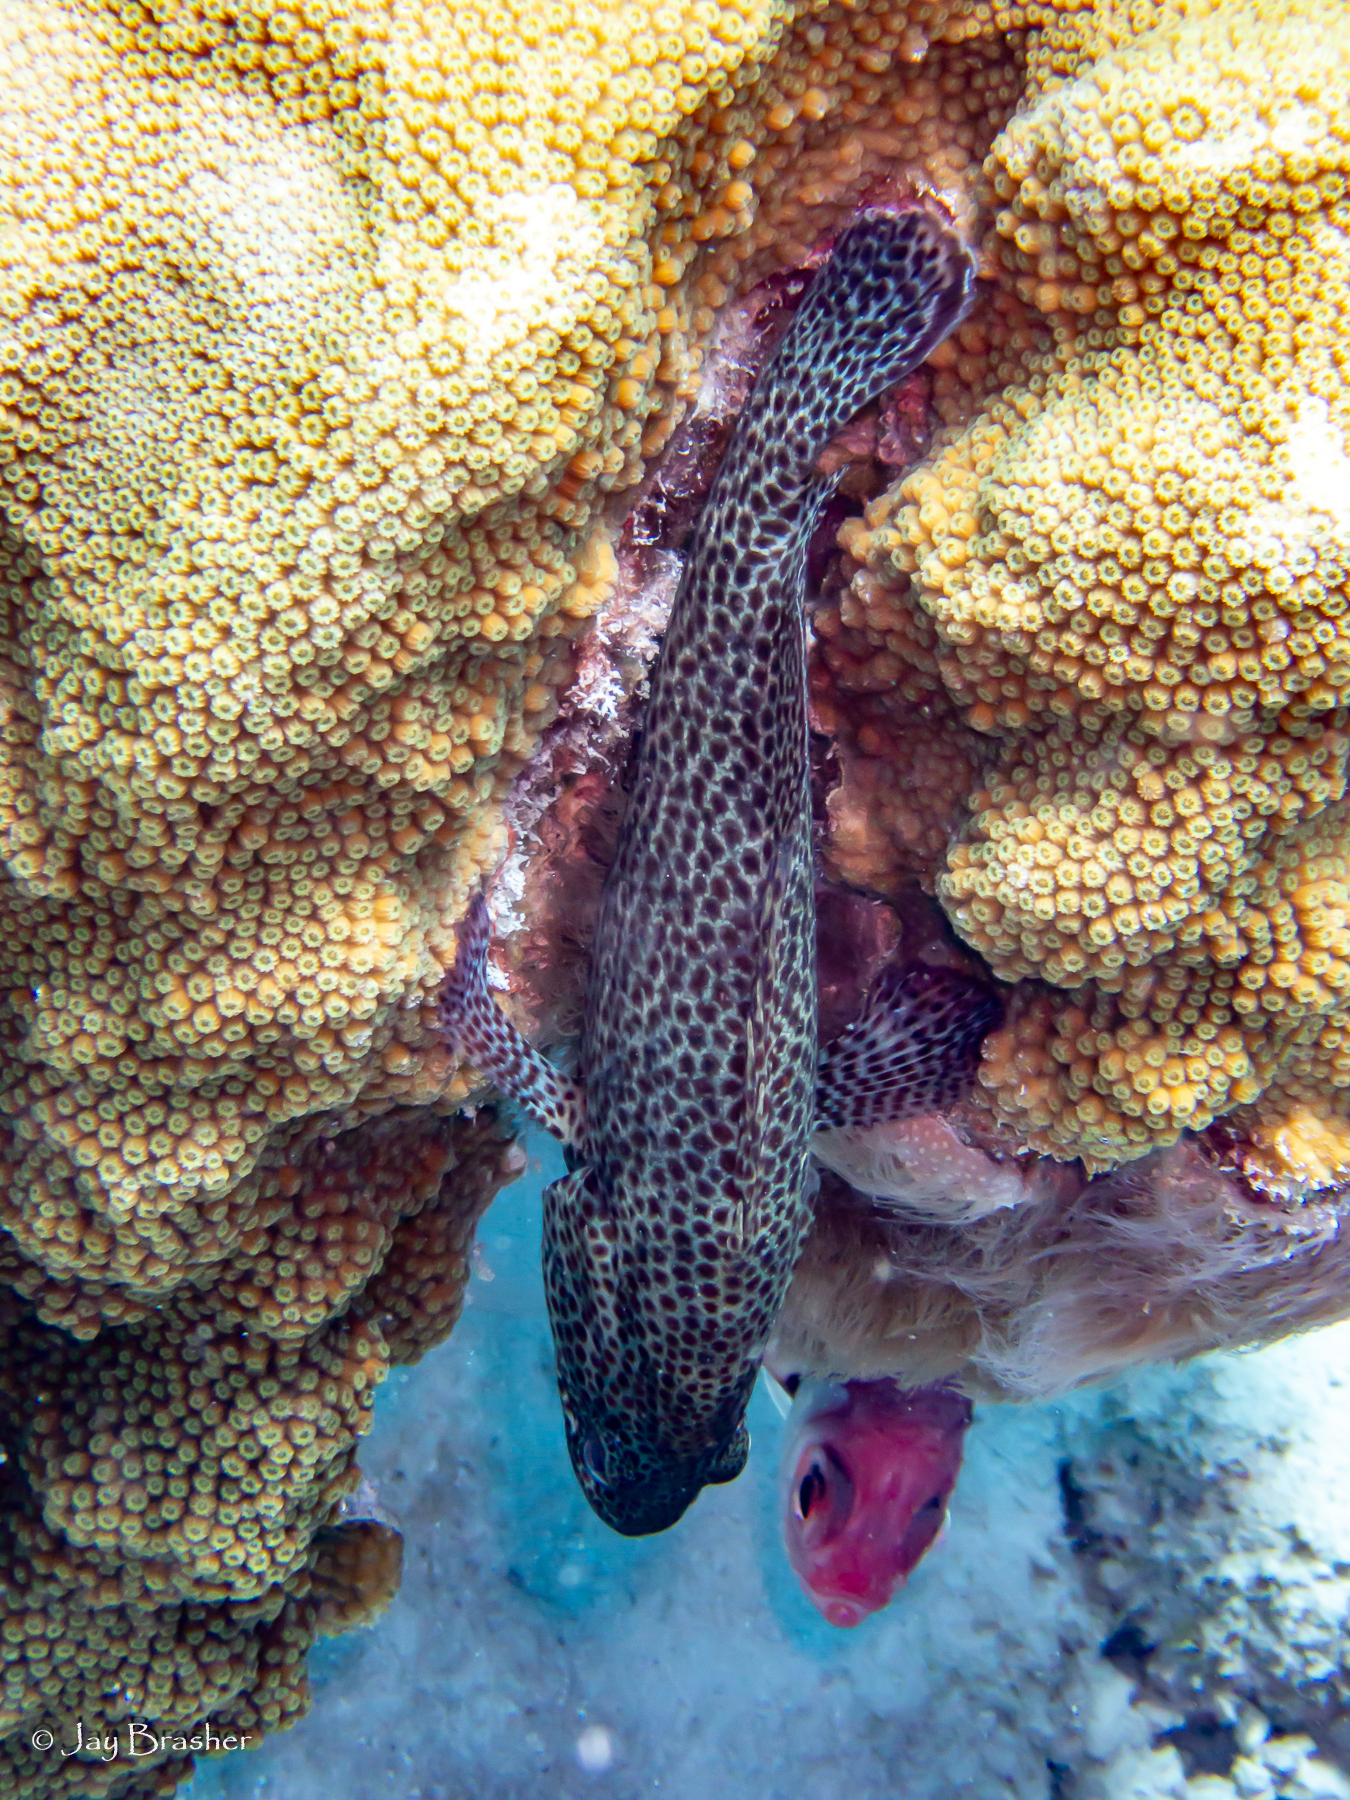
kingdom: Animalia
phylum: Chordata
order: Perciformes
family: Serranidae
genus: Cephalopholis
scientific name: Cephalopholis cruentata
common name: Graysby
